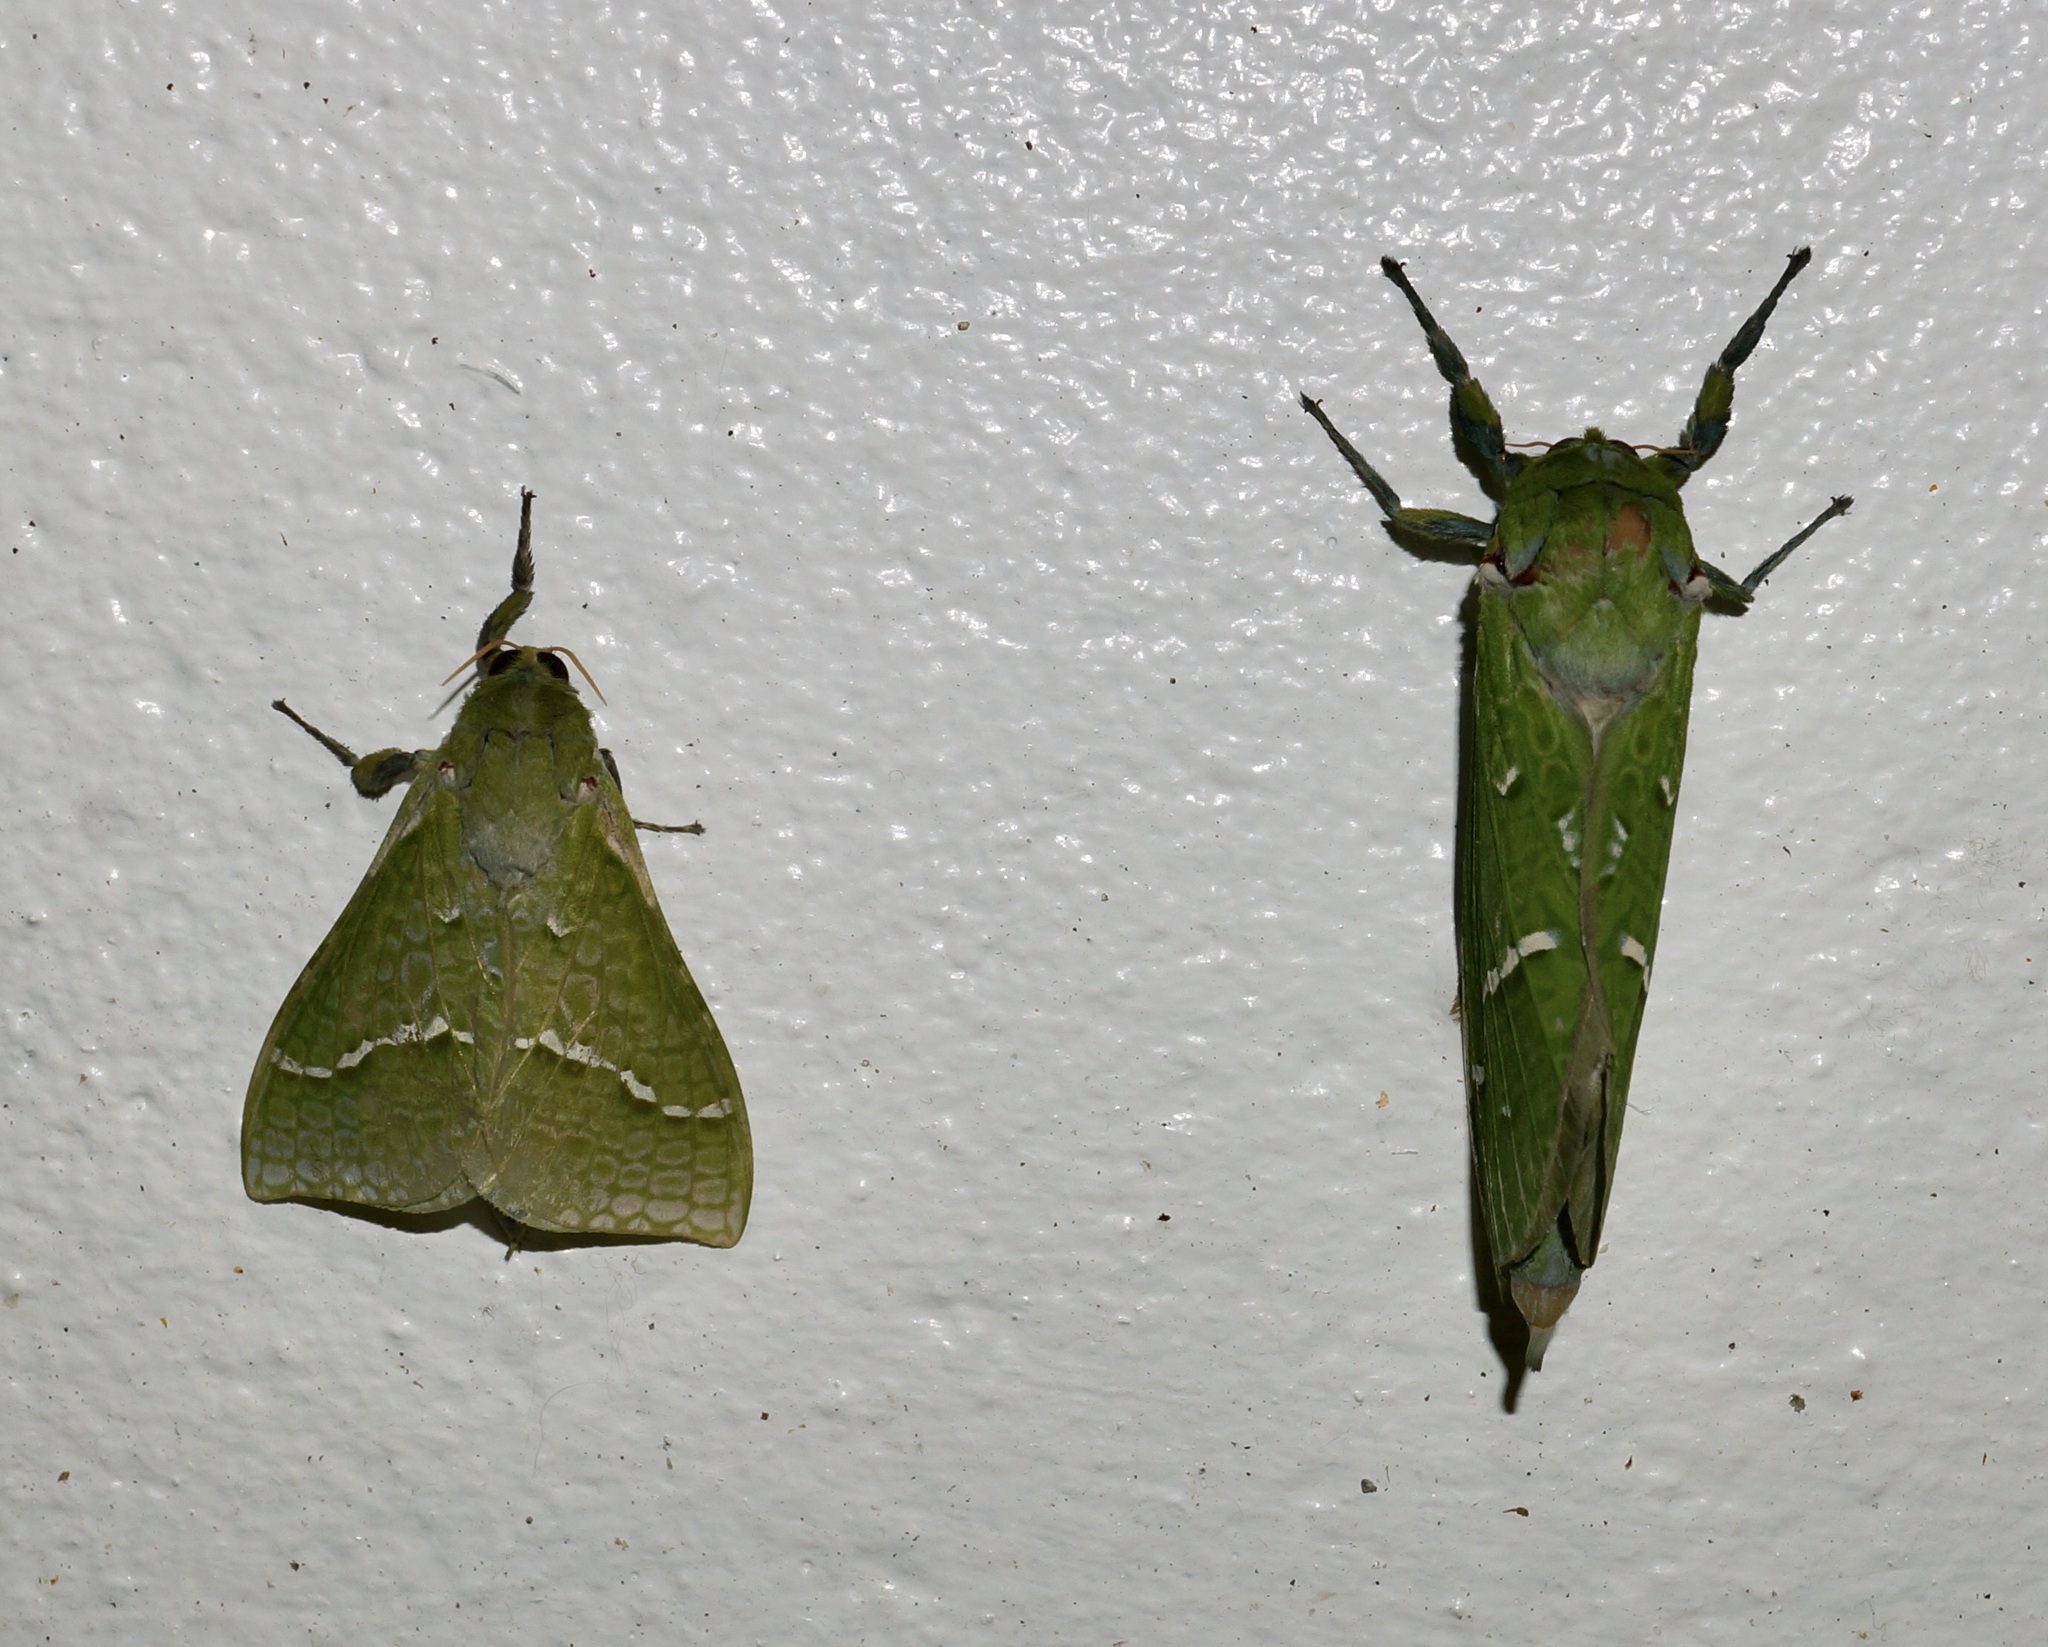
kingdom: Animalia
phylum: Arthropoda
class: Insecta
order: Lepidoptera
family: Hepialidae
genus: Aenetus
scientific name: Aenetus virescens
